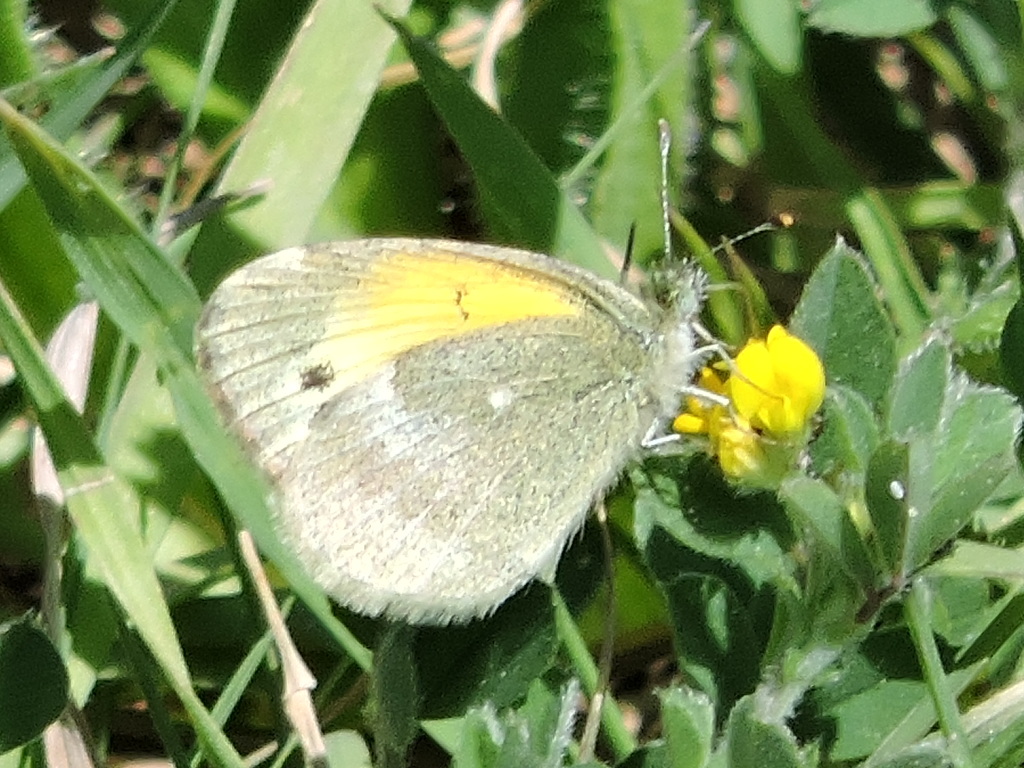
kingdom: Animalia
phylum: Arthropoda
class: Insecta
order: Lepidoptera
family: Pieridae
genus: Nathalis
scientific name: Nathalis iole
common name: Dainty sulphur
